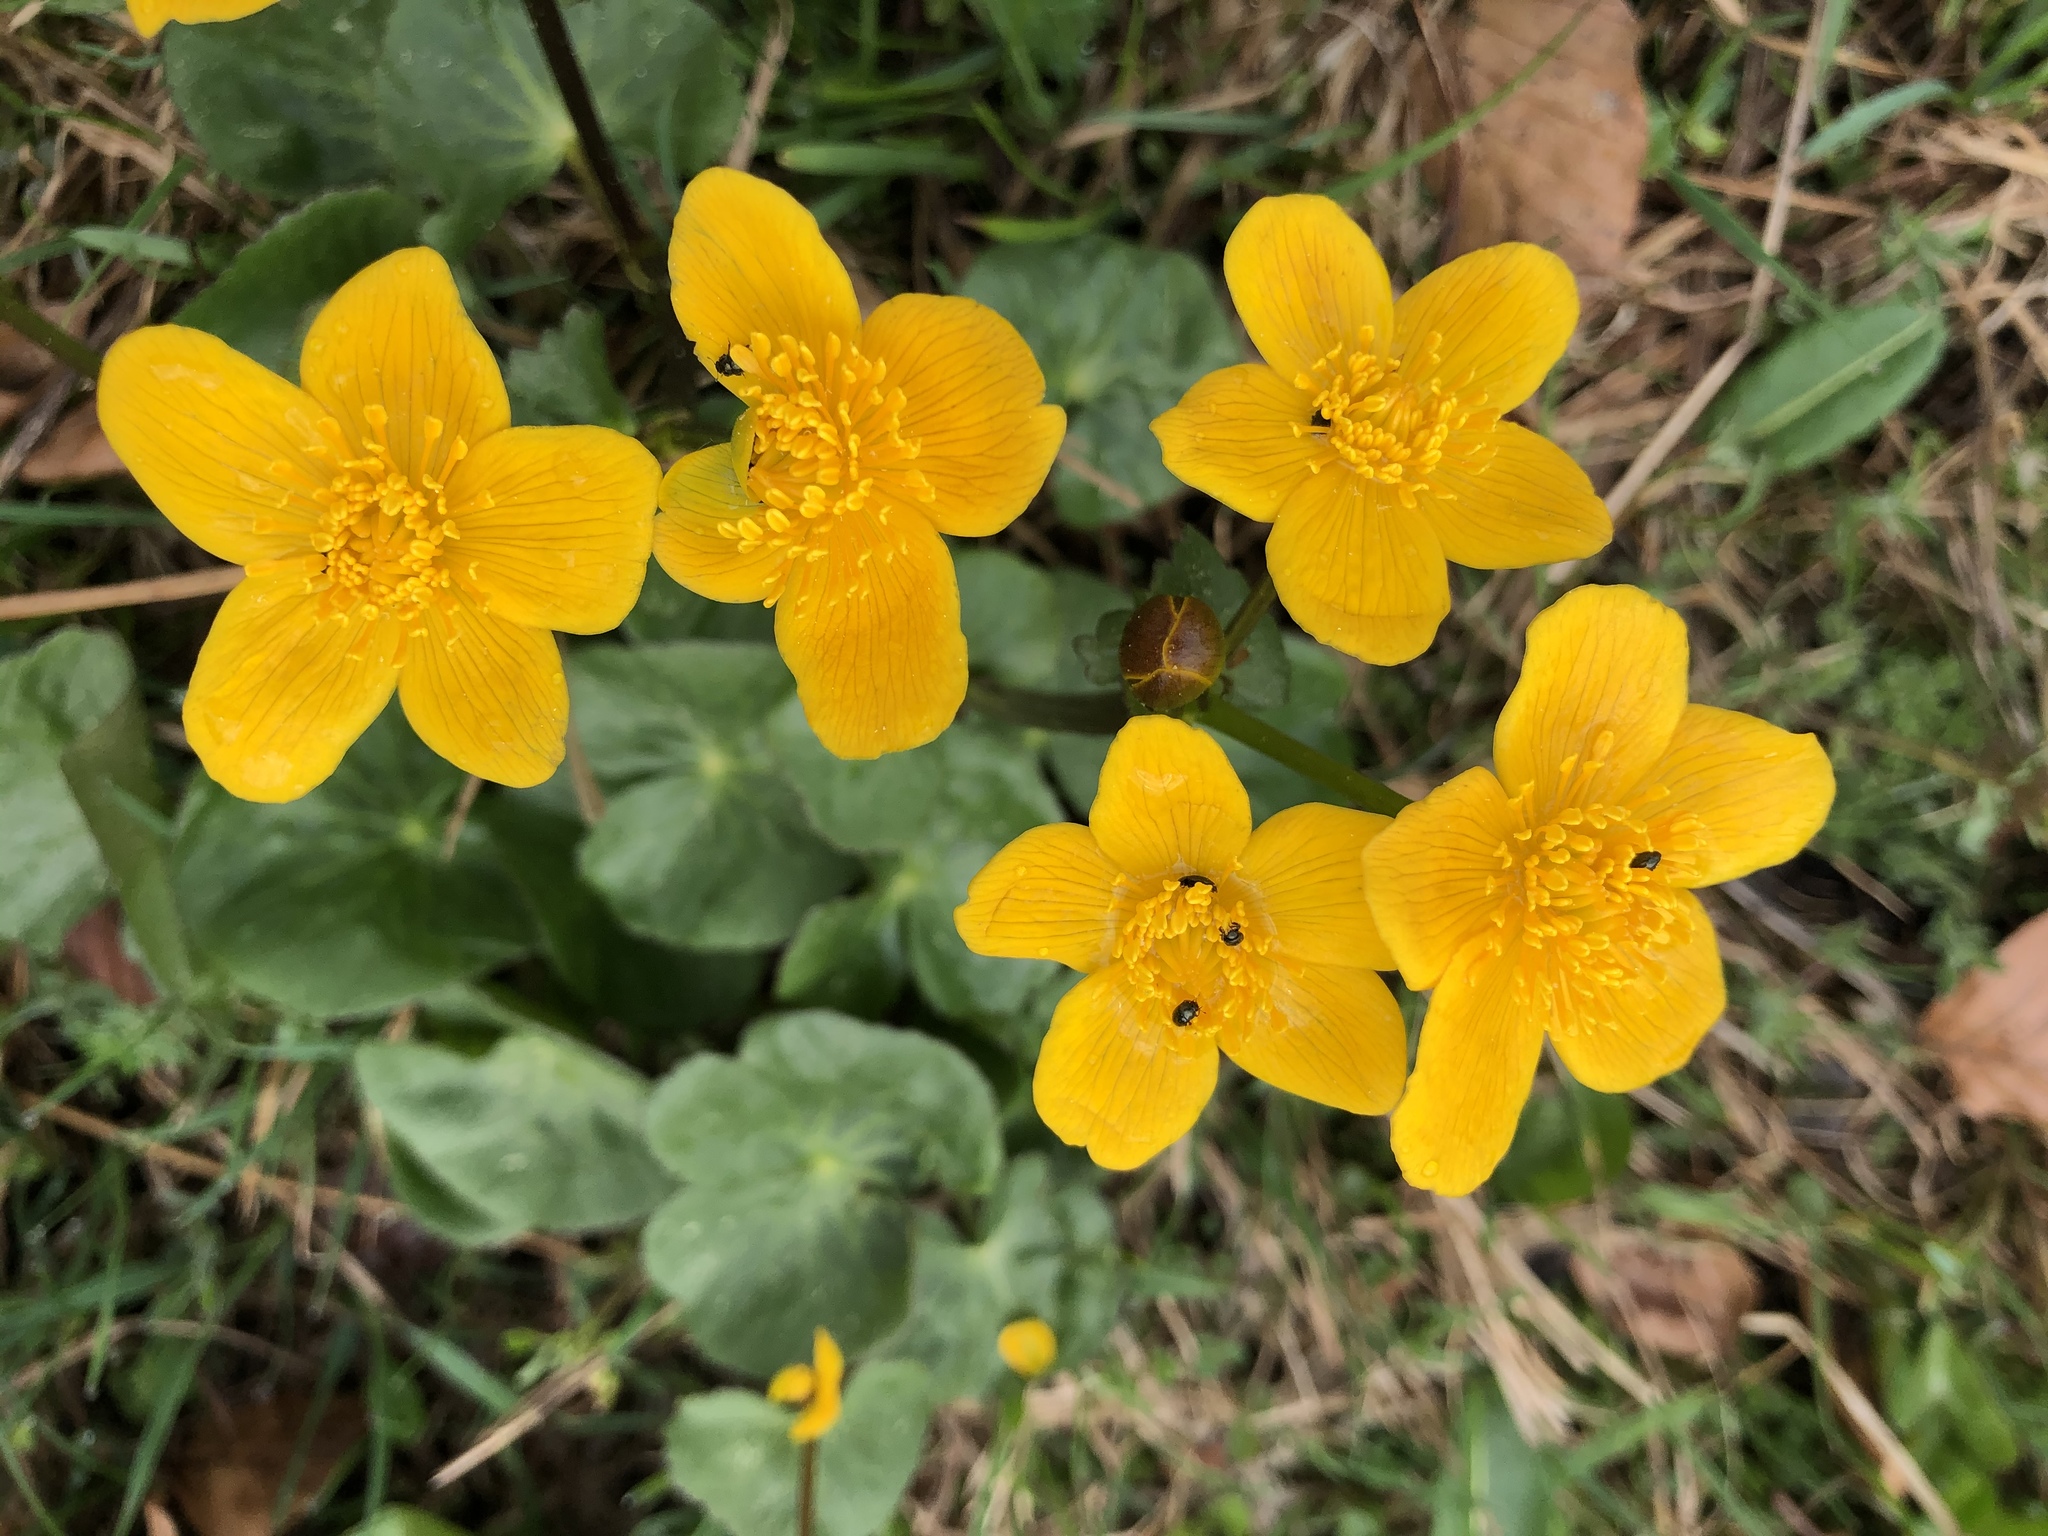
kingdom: Plantae
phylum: Tracheophyta
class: Magnoliopsida
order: Ranunculales
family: Ranunculaceae
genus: Caltha
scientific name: Caltha palustris
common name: Marsh marigold
